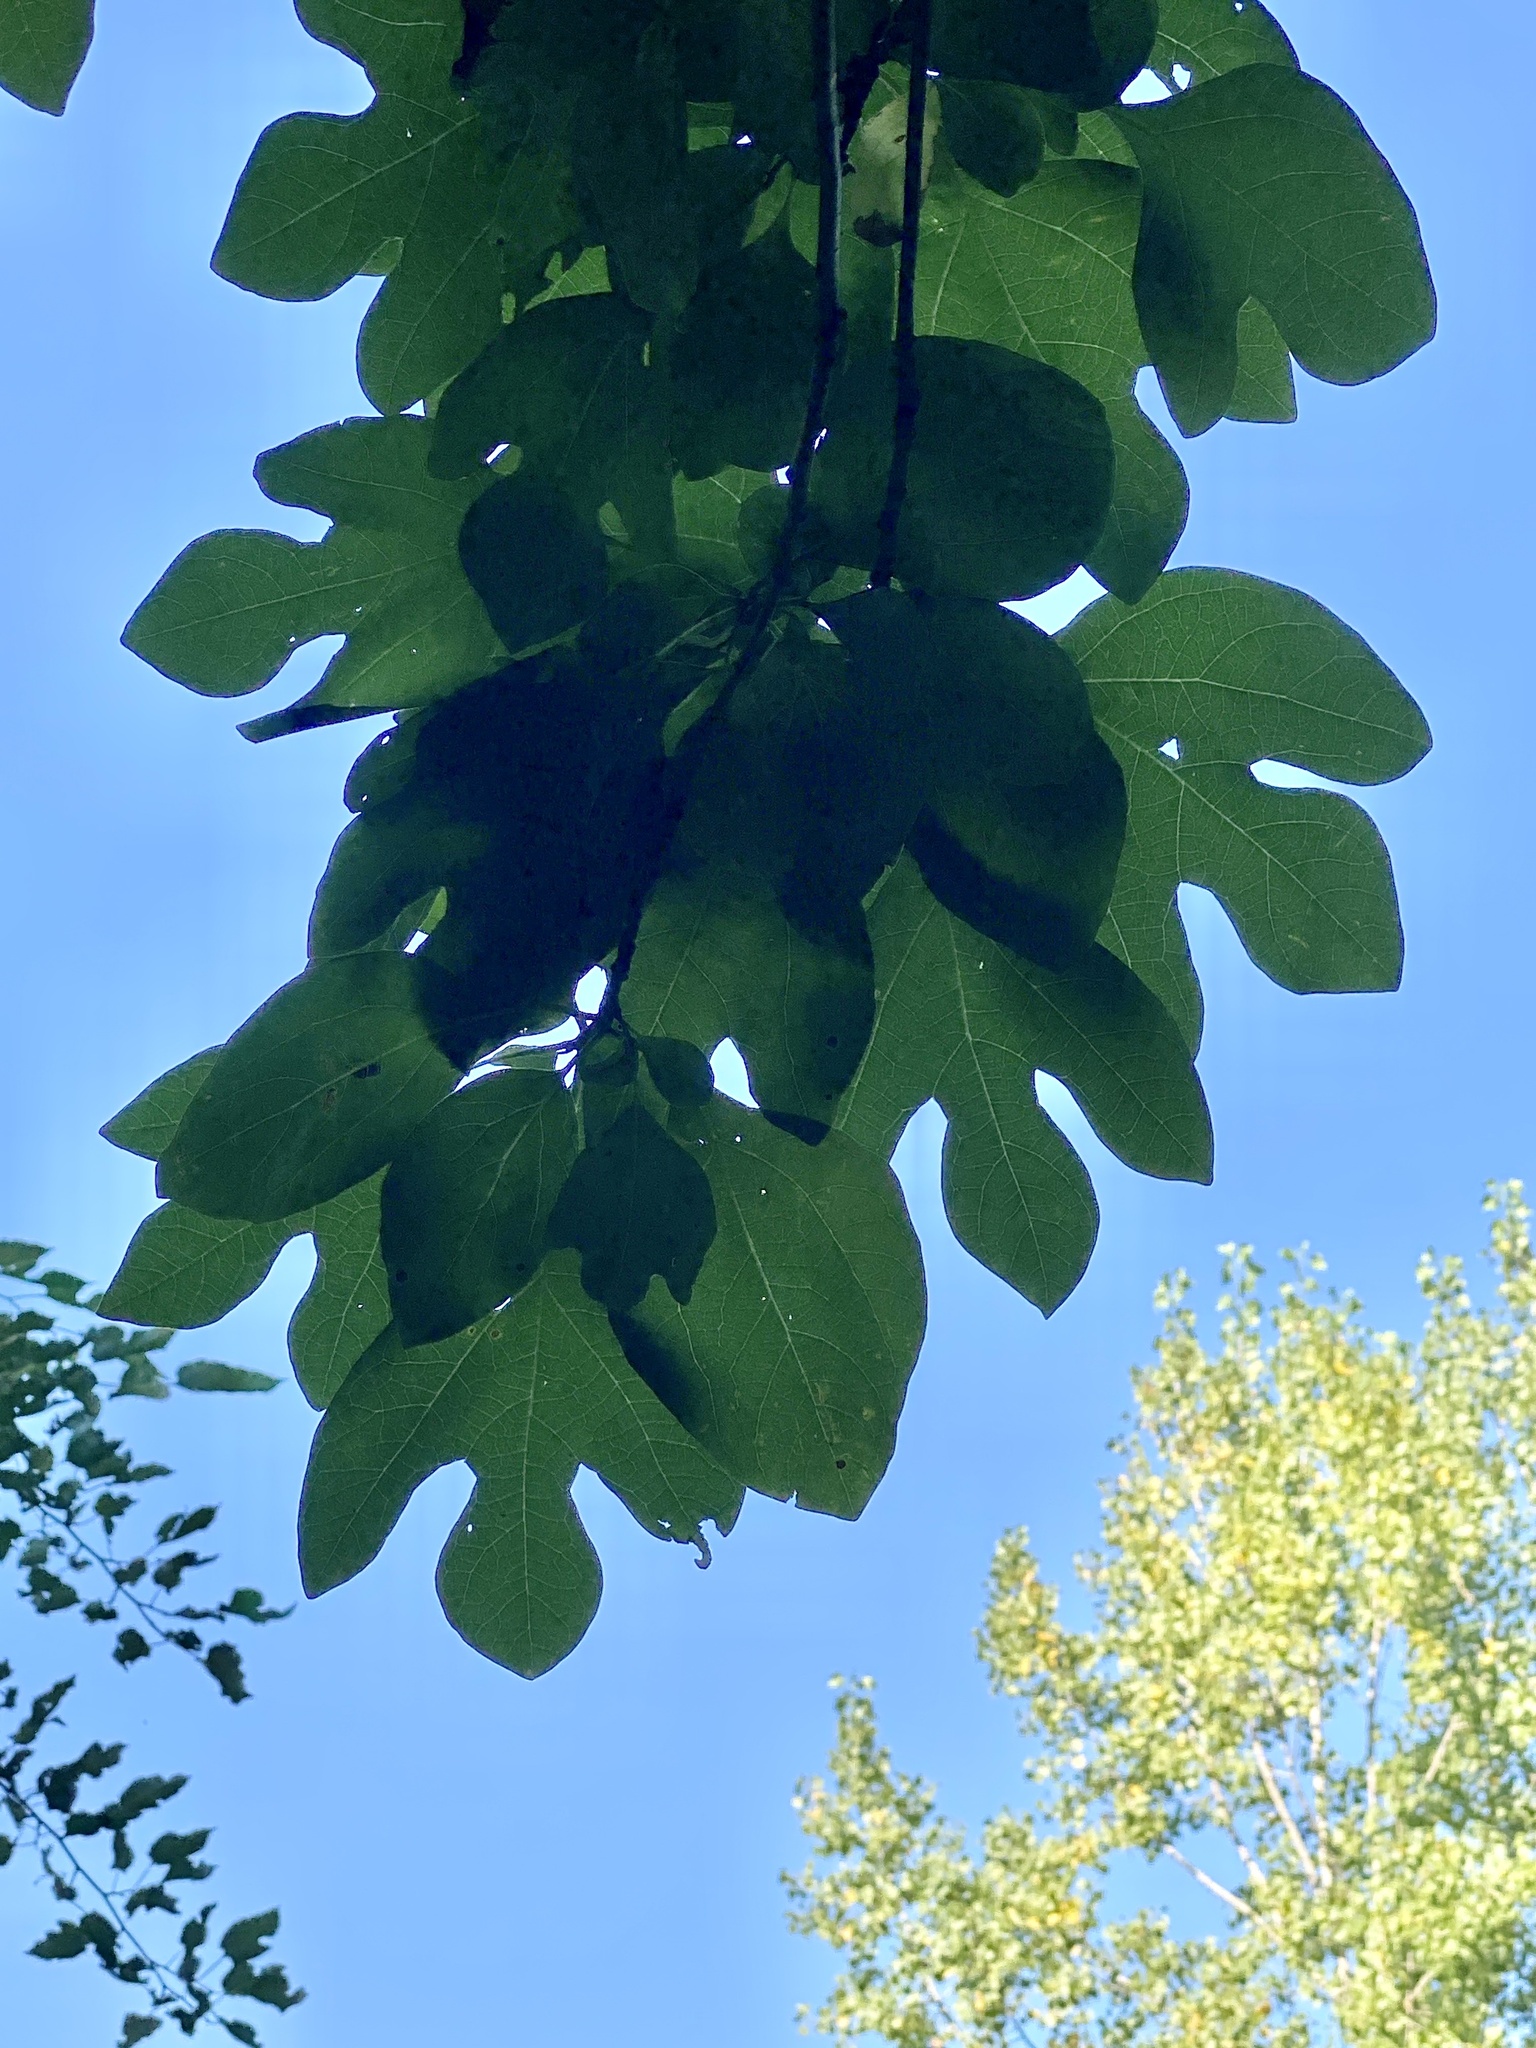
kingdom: Plantae
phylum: Tracheophyta
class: Magnoliopsida
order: Laurales
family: Lauraceae
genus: Sassafras
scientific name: Sassafras albidum
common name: Sassafras
